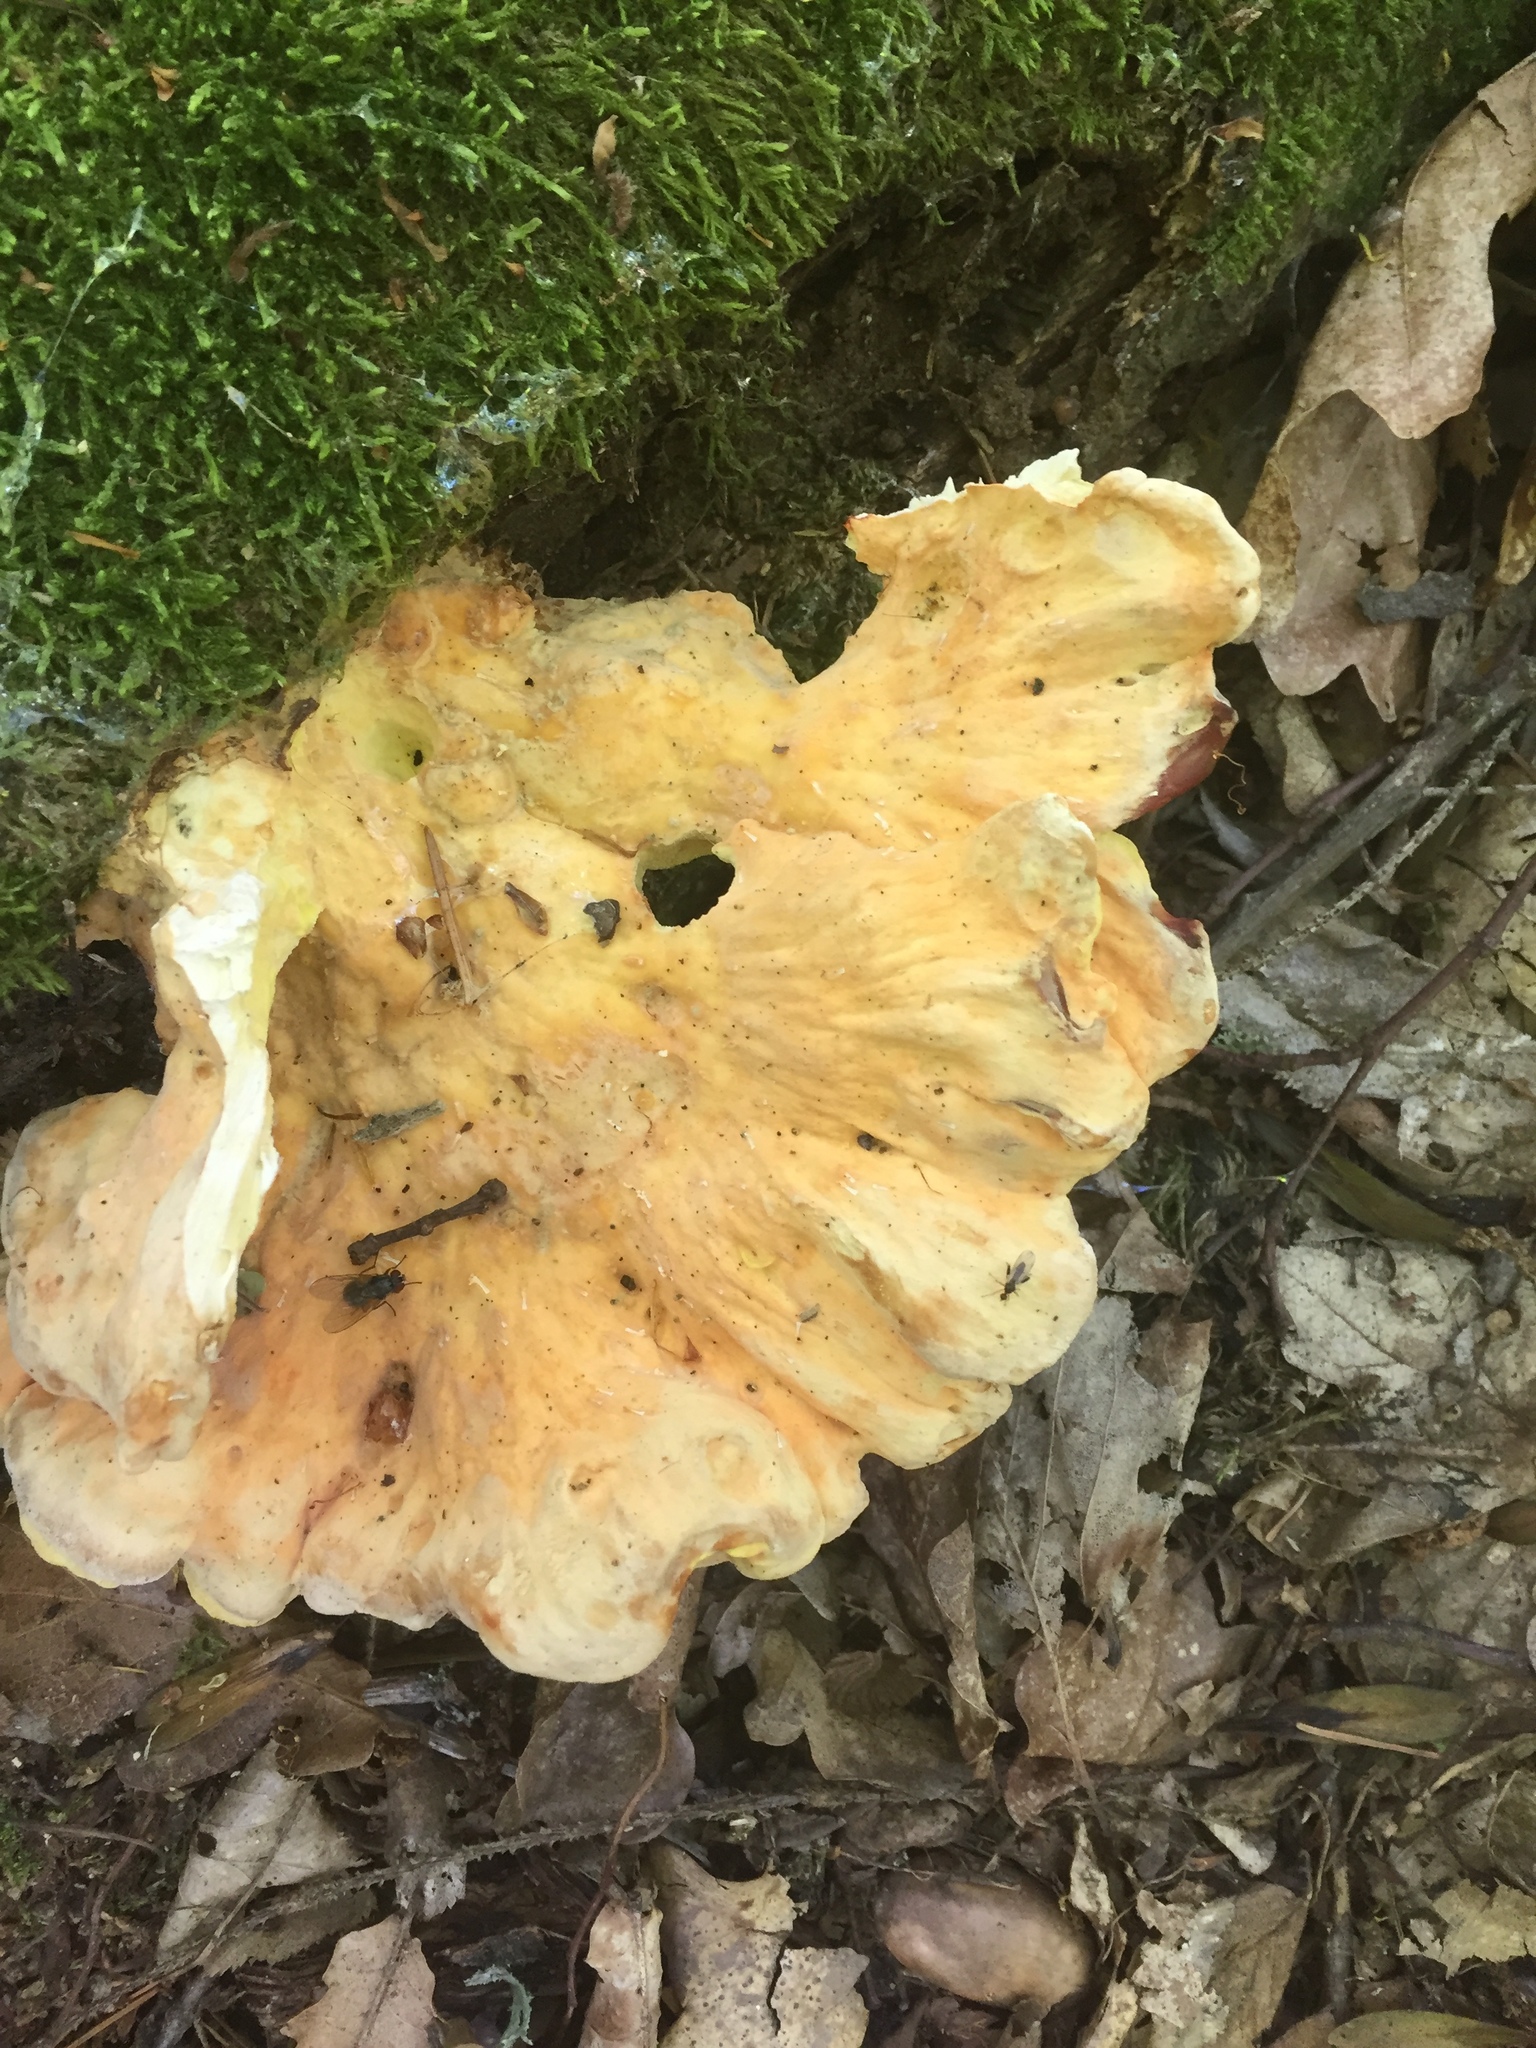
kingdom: Fungi
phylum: Basidiomycota
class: Agaricomycetes
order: Polyporales
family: Laetiporaceae
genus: Laetiporus
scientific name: Laetiporus sulphureus
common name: Chicken of the woods
